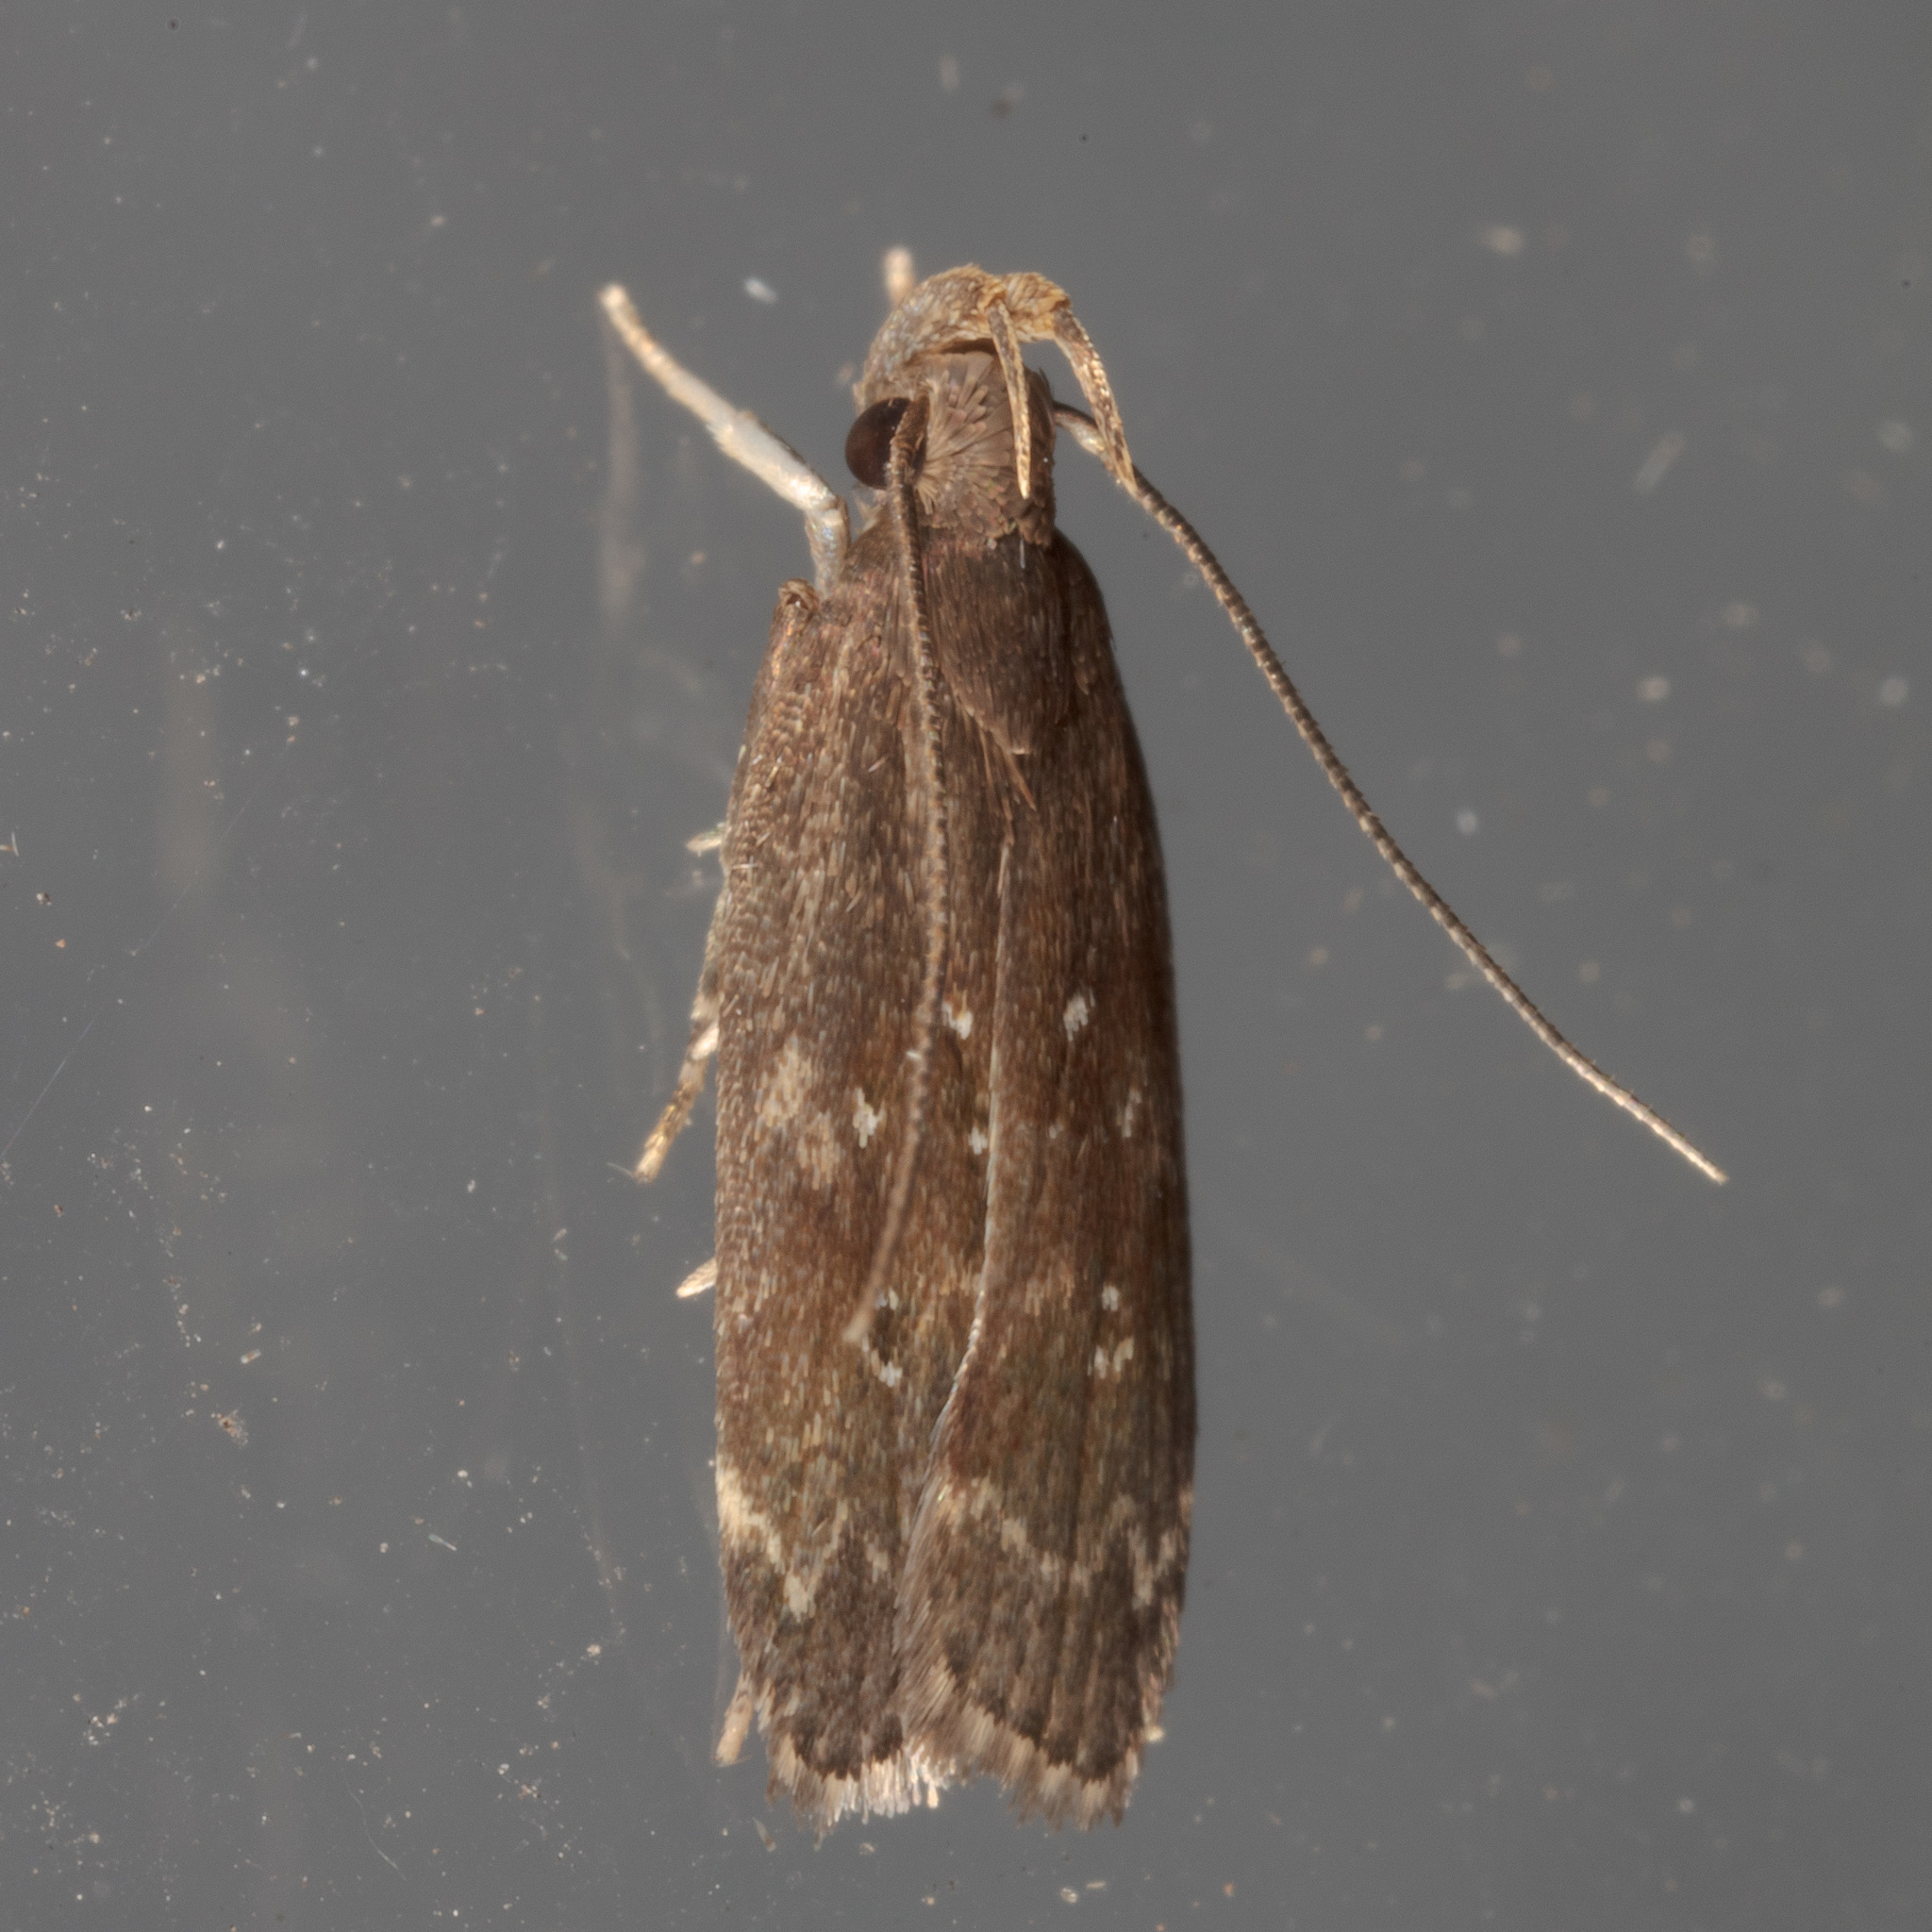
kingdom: Animalia
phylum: Arthropoda
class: Insecta
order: Lepidoptera
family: Gelechiidae
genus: Helcystogramma
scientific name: Helcystogramma melantherella
